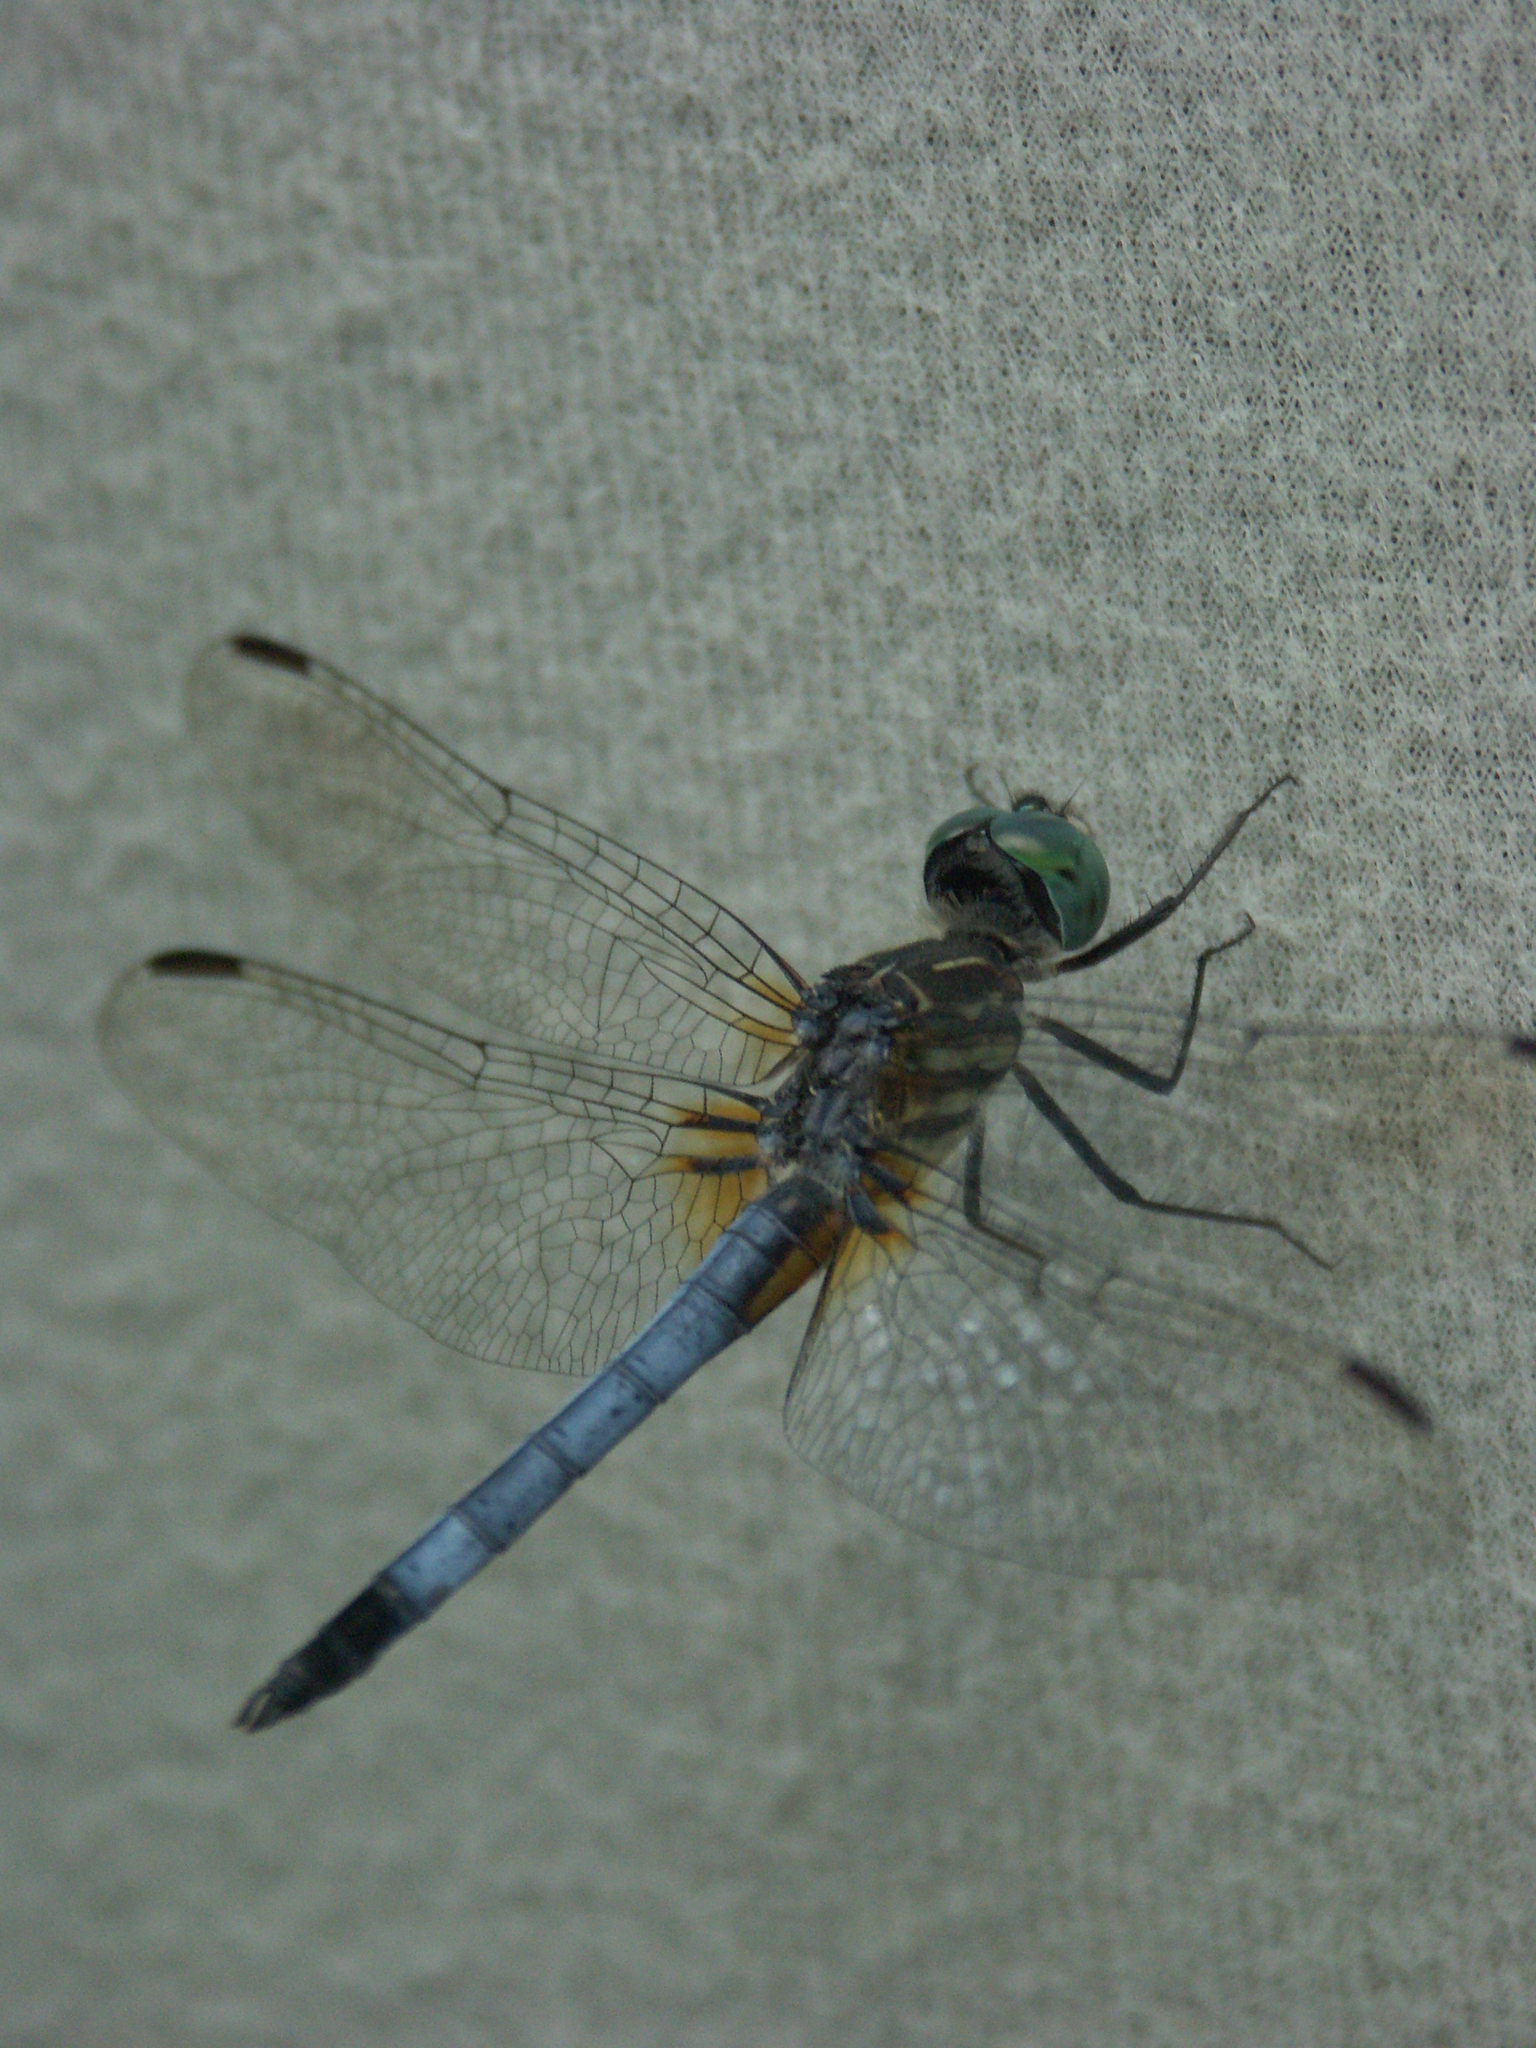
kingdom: Animalia
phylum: Arthropoda
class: Insecta
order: Odonata
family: Libellulidae
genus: Pachydiplax
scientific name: Pachydiplax longipennis
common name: Blue dasher
